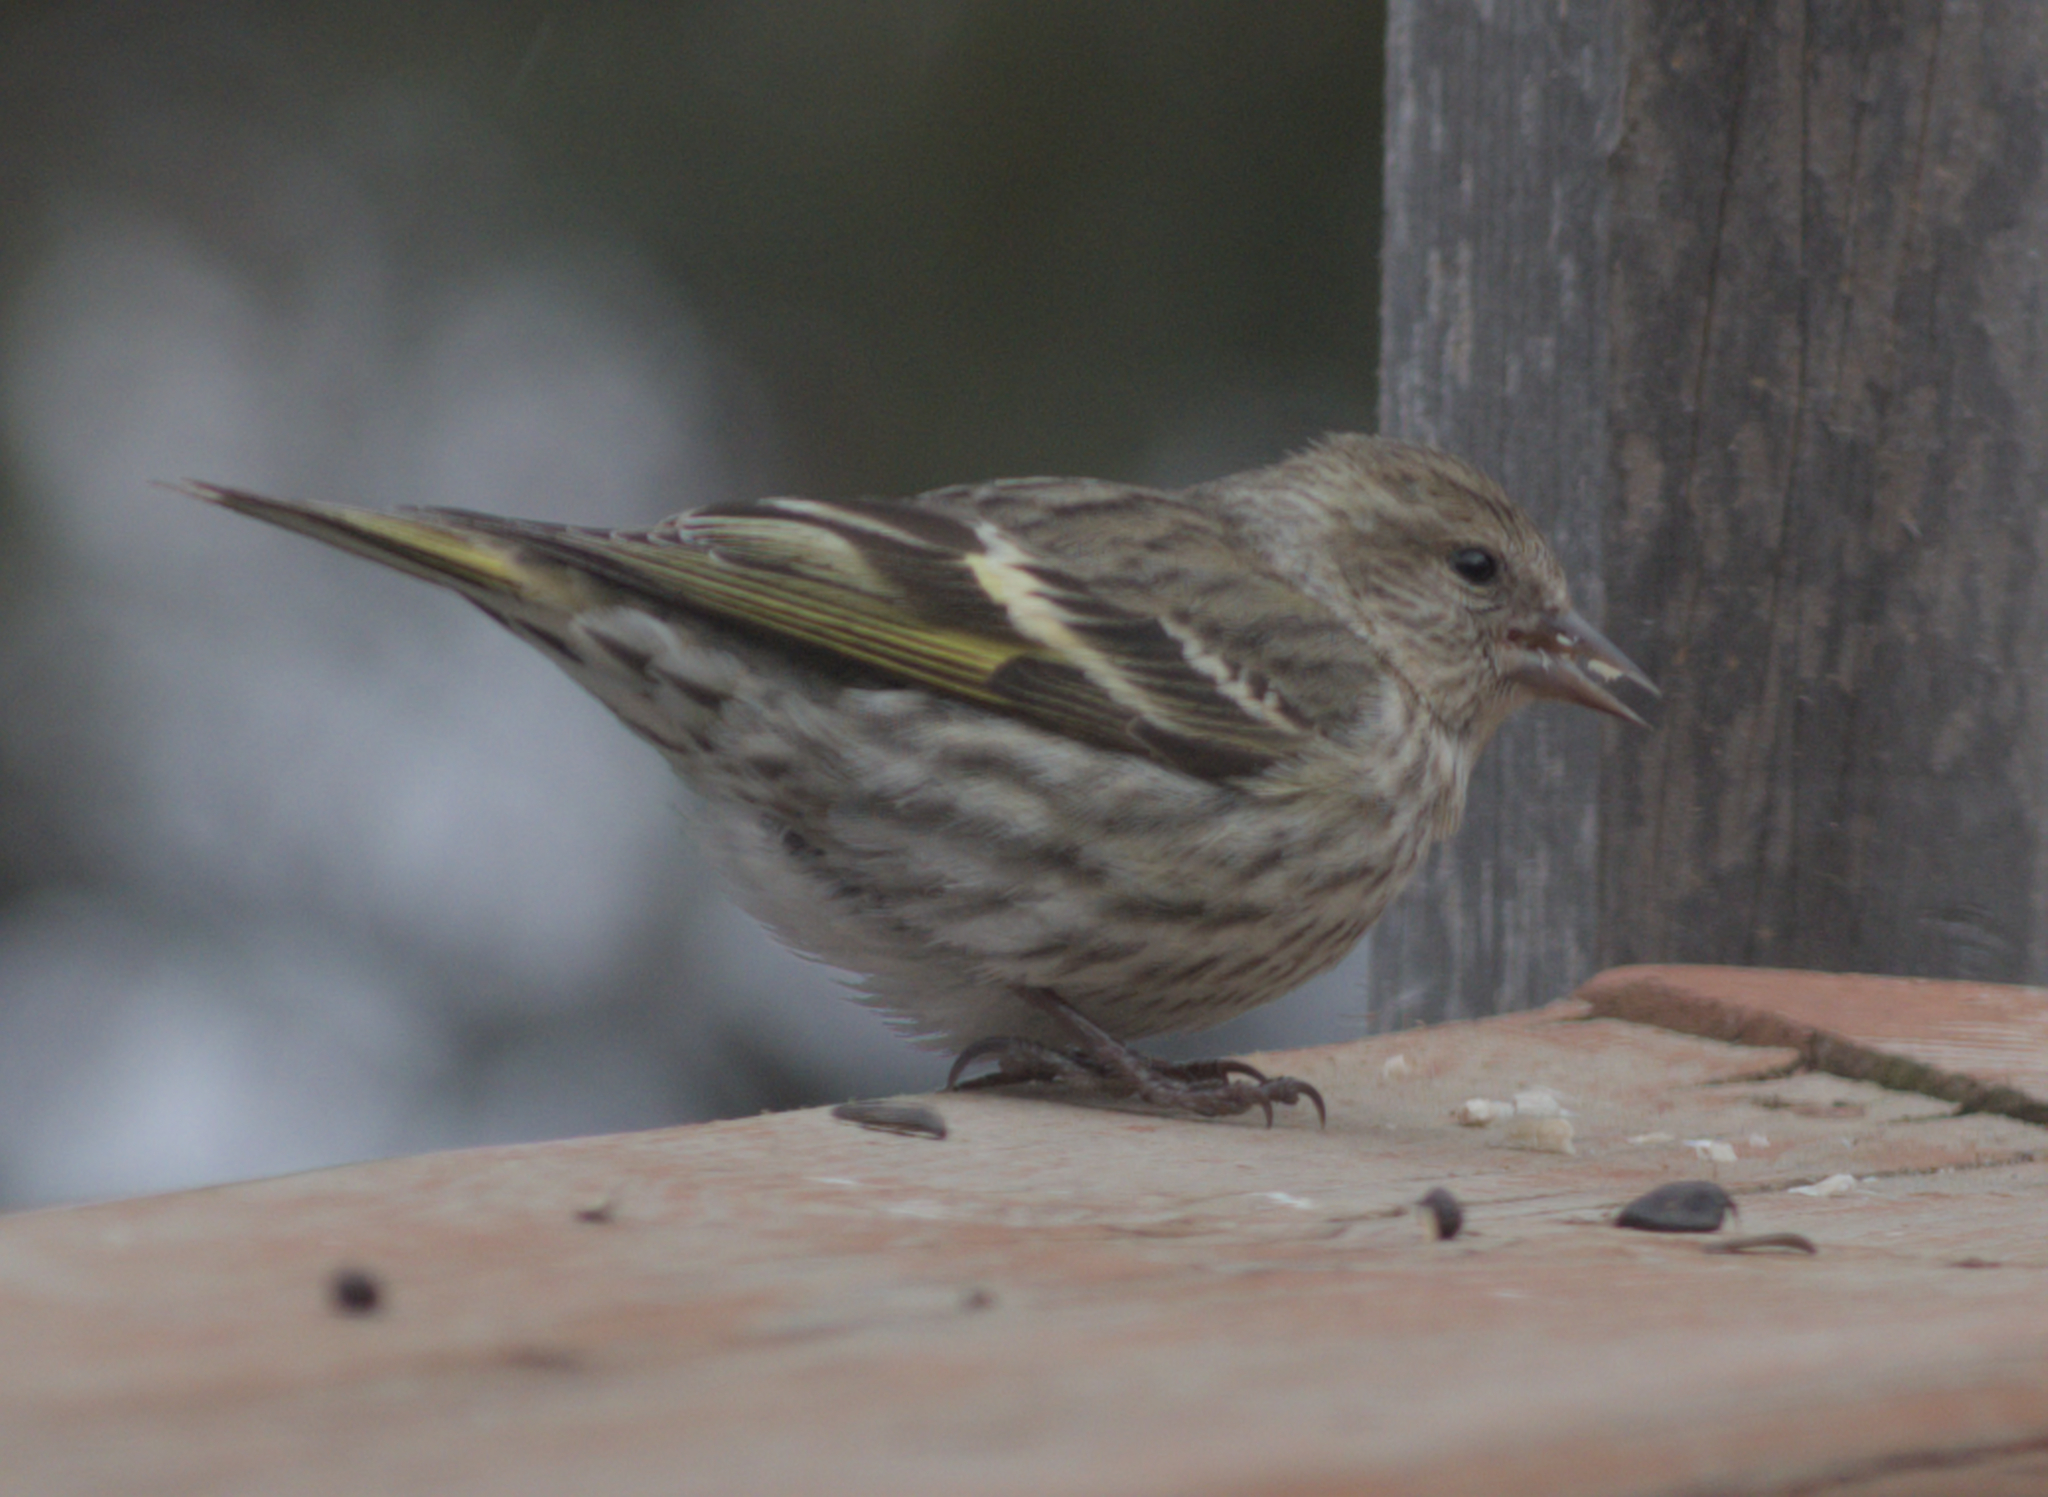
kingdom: Animalia
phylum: Chordata
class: Aves
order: Passeriformes
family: Fringillidae
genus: Spinus
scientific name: Spinus pinus
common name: Pine siskin
